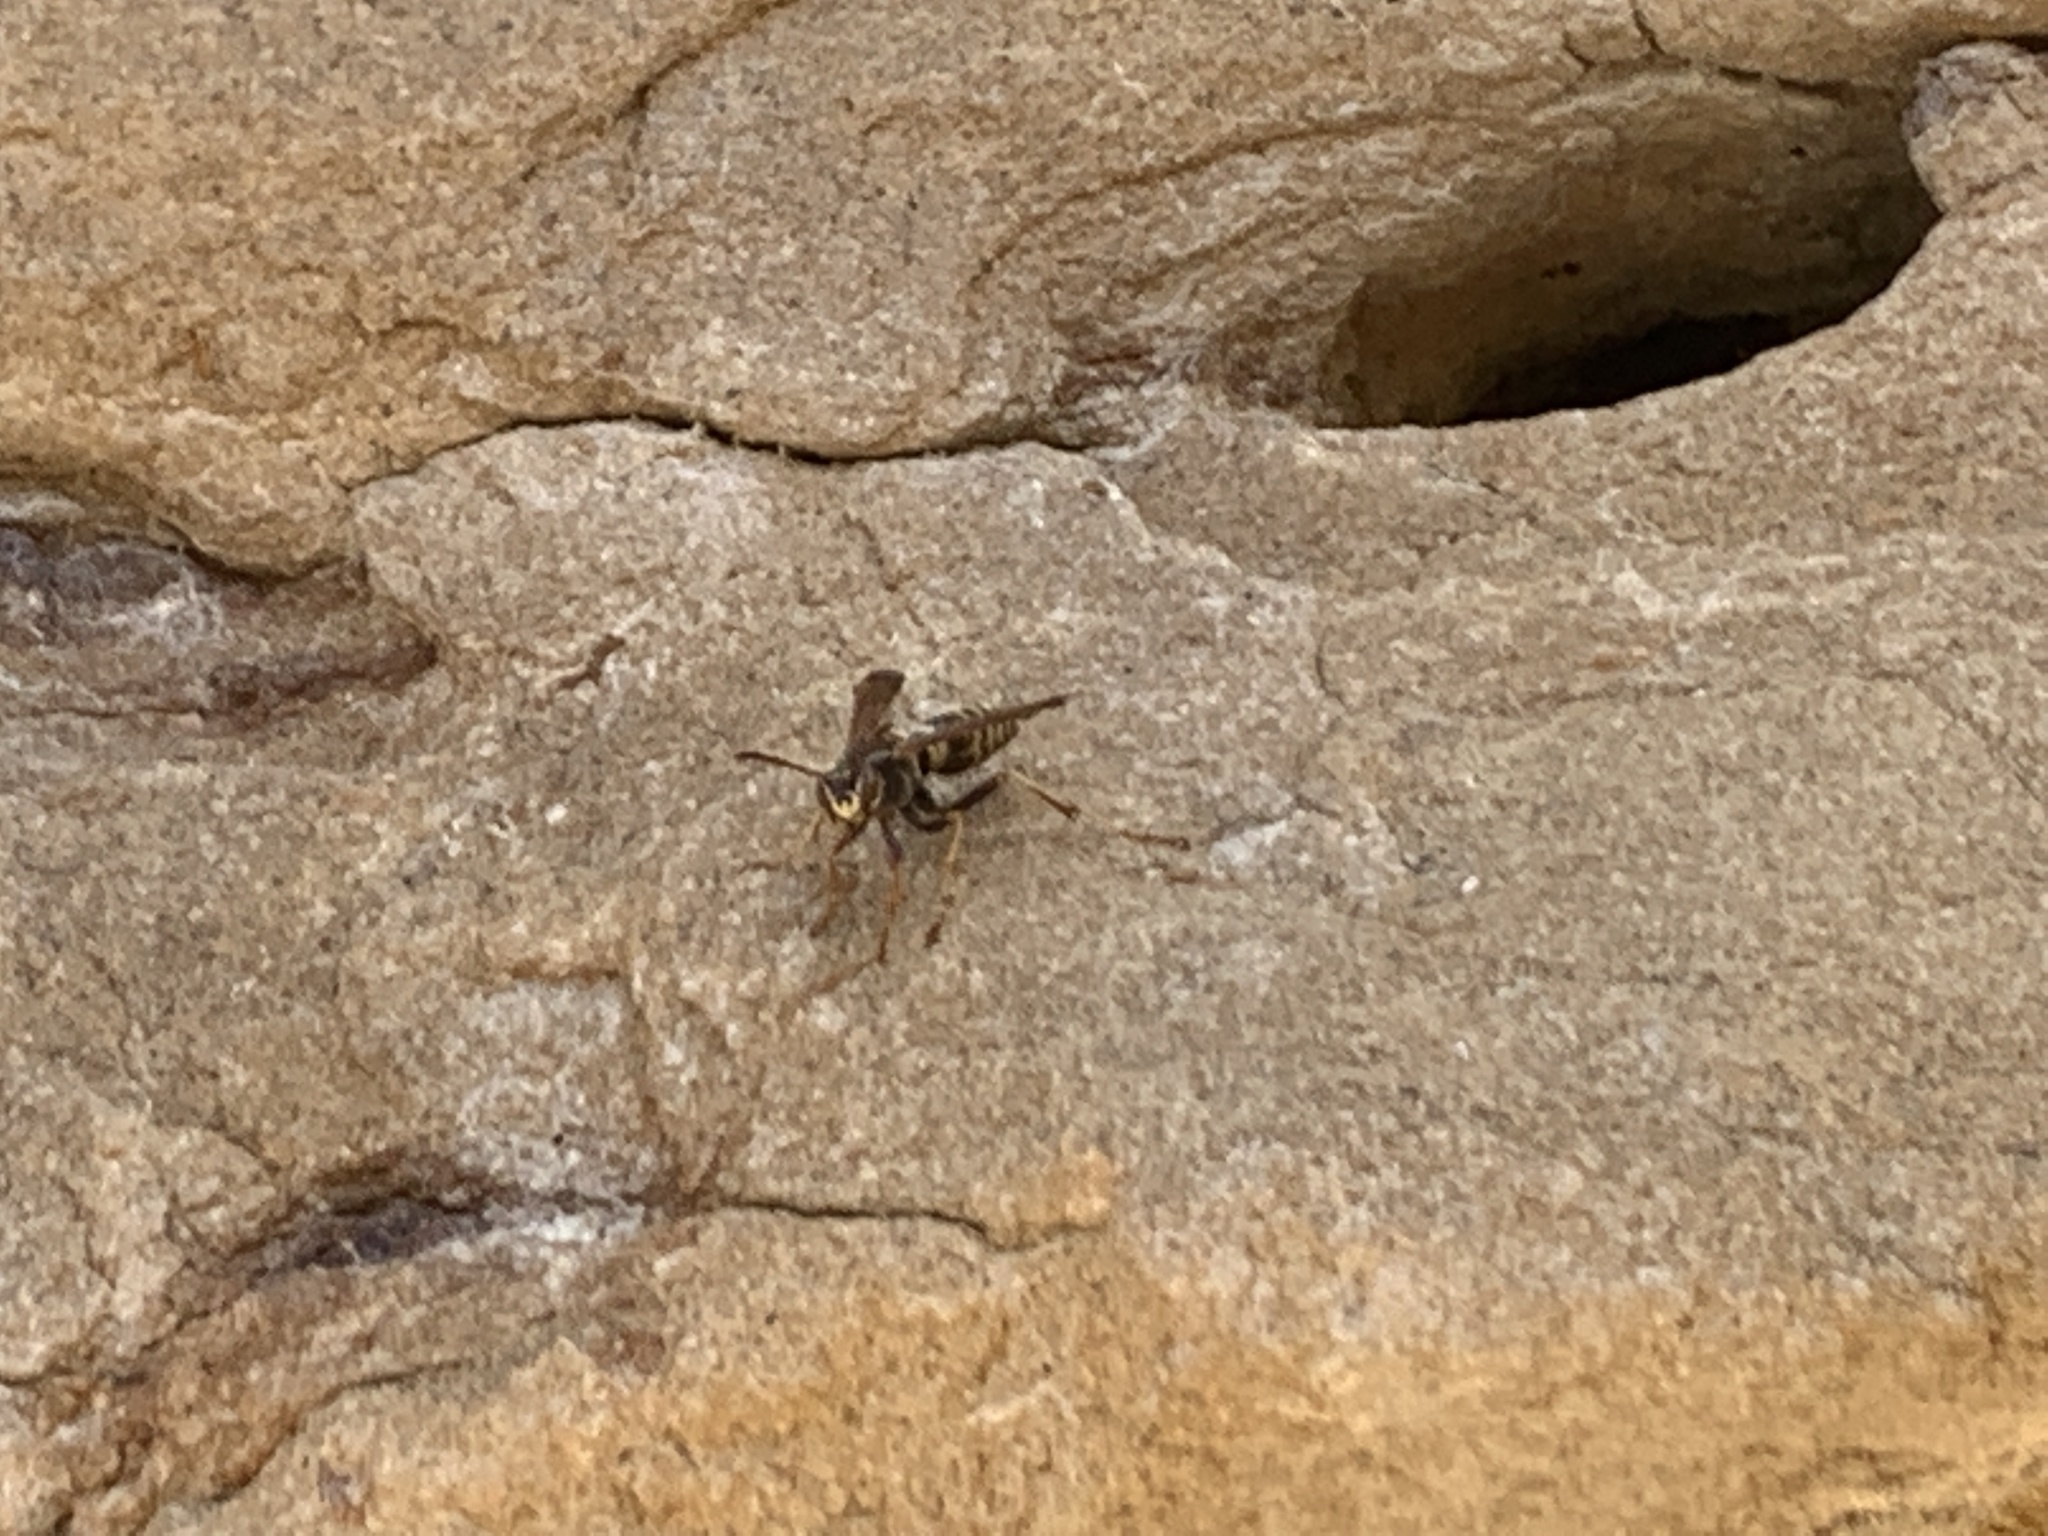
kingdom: Animalia
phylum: Arthropoda
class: Insecta
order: Hymenoptera
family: Eumenidae
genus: Polistes
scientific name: Polistes aurifer
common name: Paper wasp
